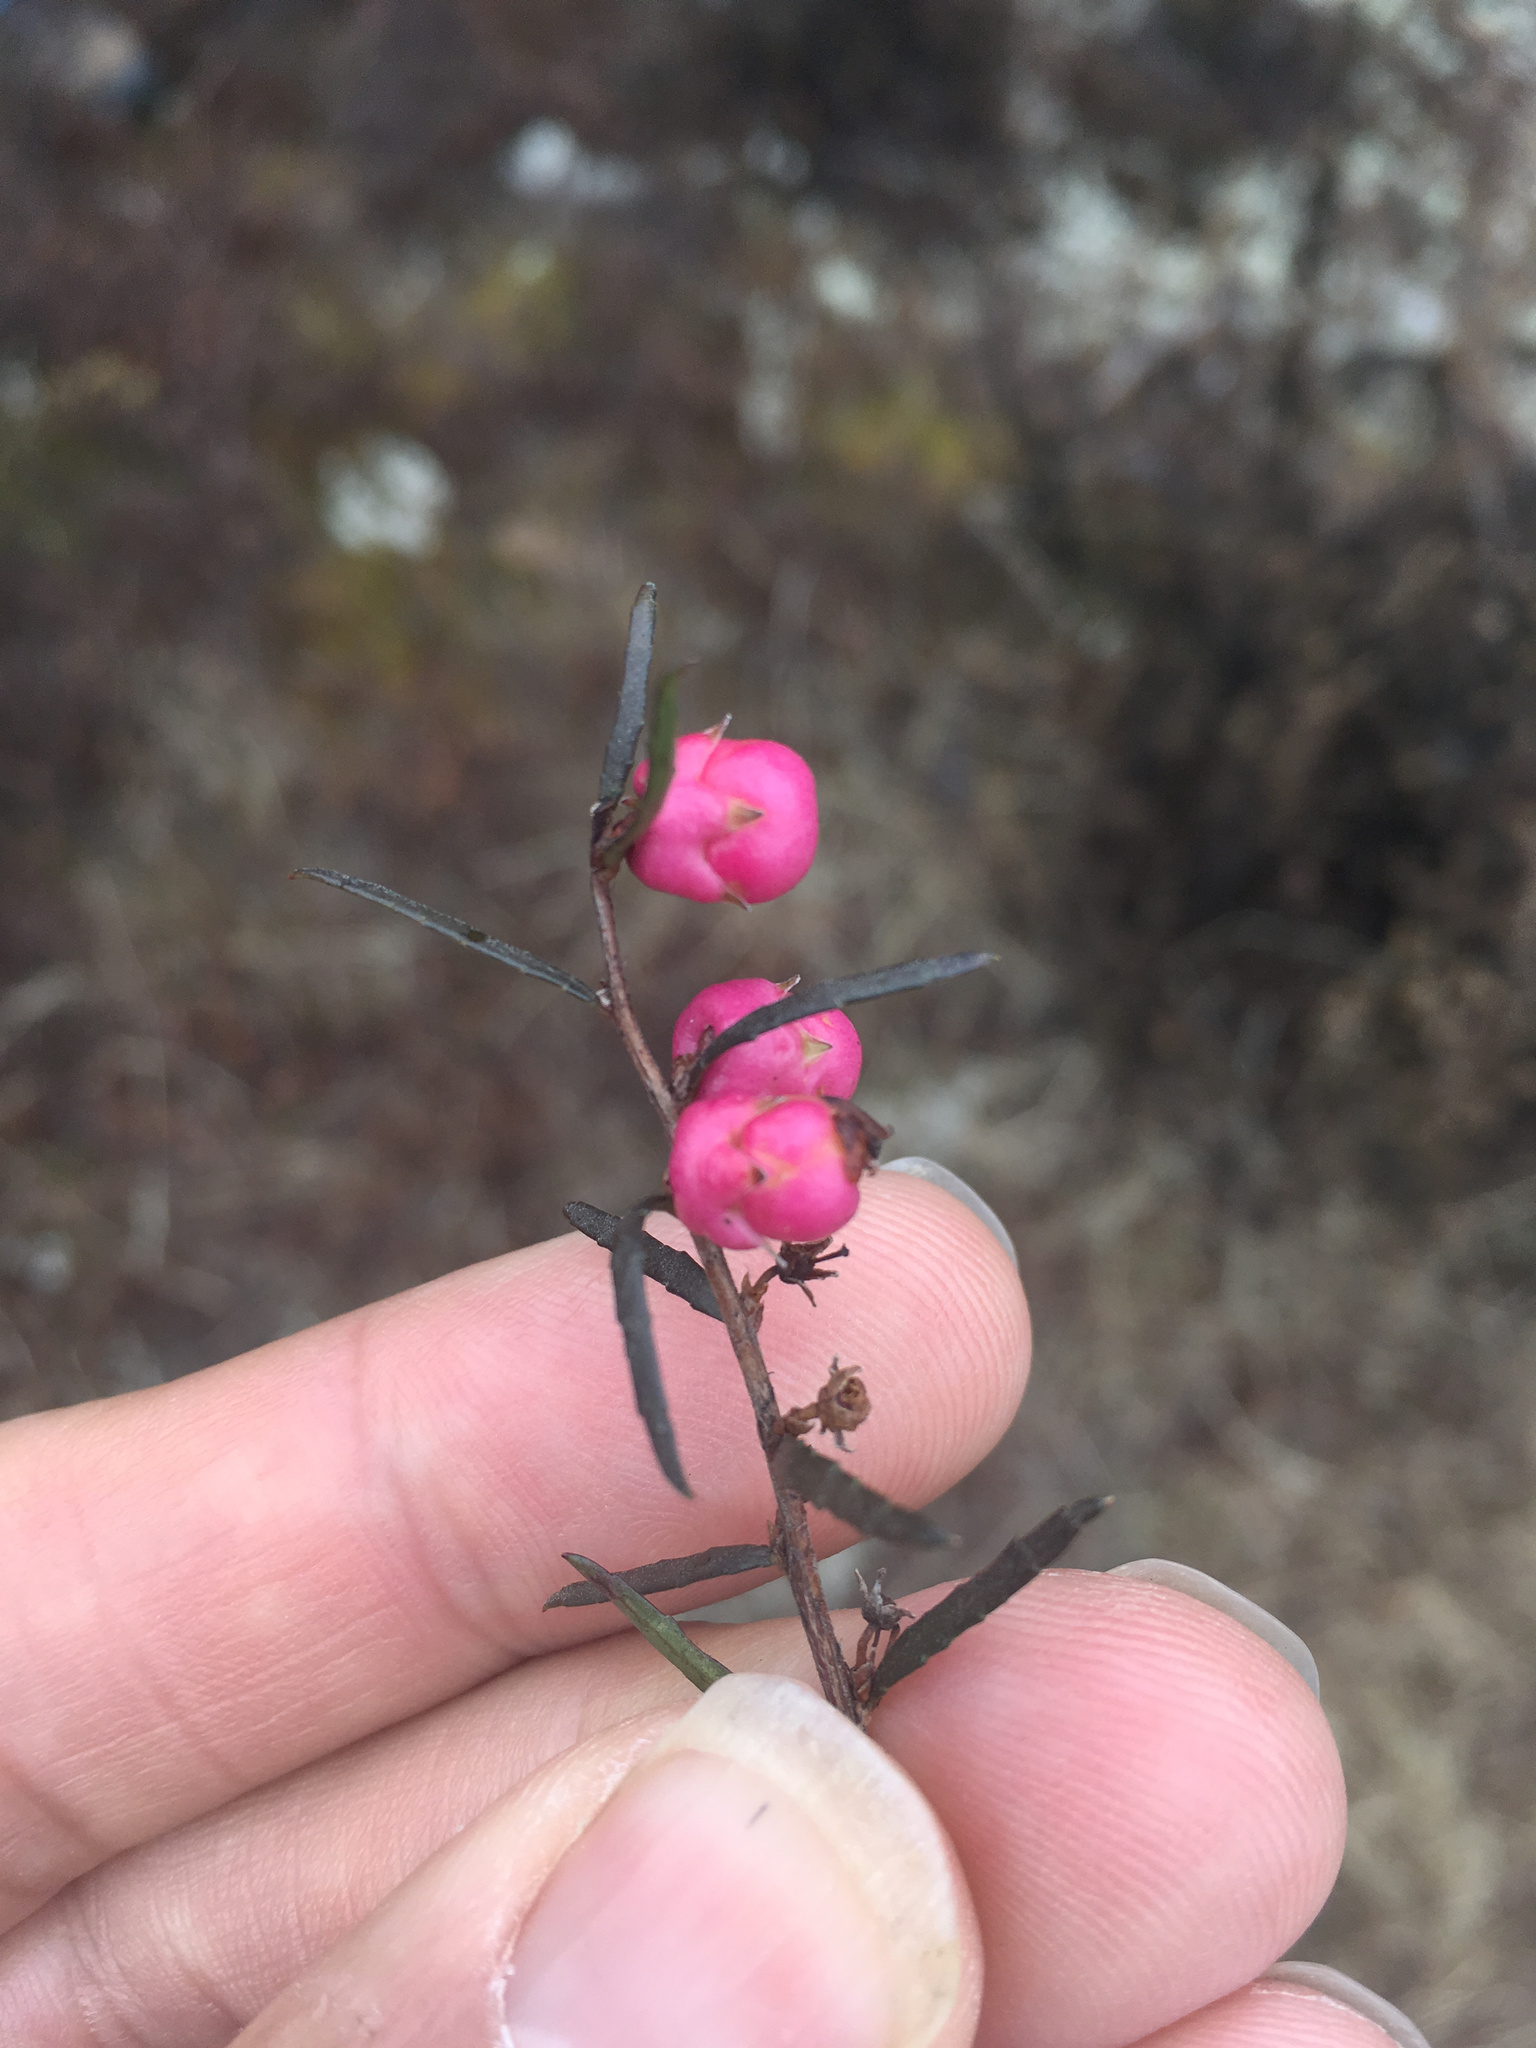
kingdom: Plantae
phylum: Tracheophyta
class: Magnoliopsida
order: Ericales
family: Ericaceae
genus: Gaultheria
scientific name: Gaultheria macrostigma
